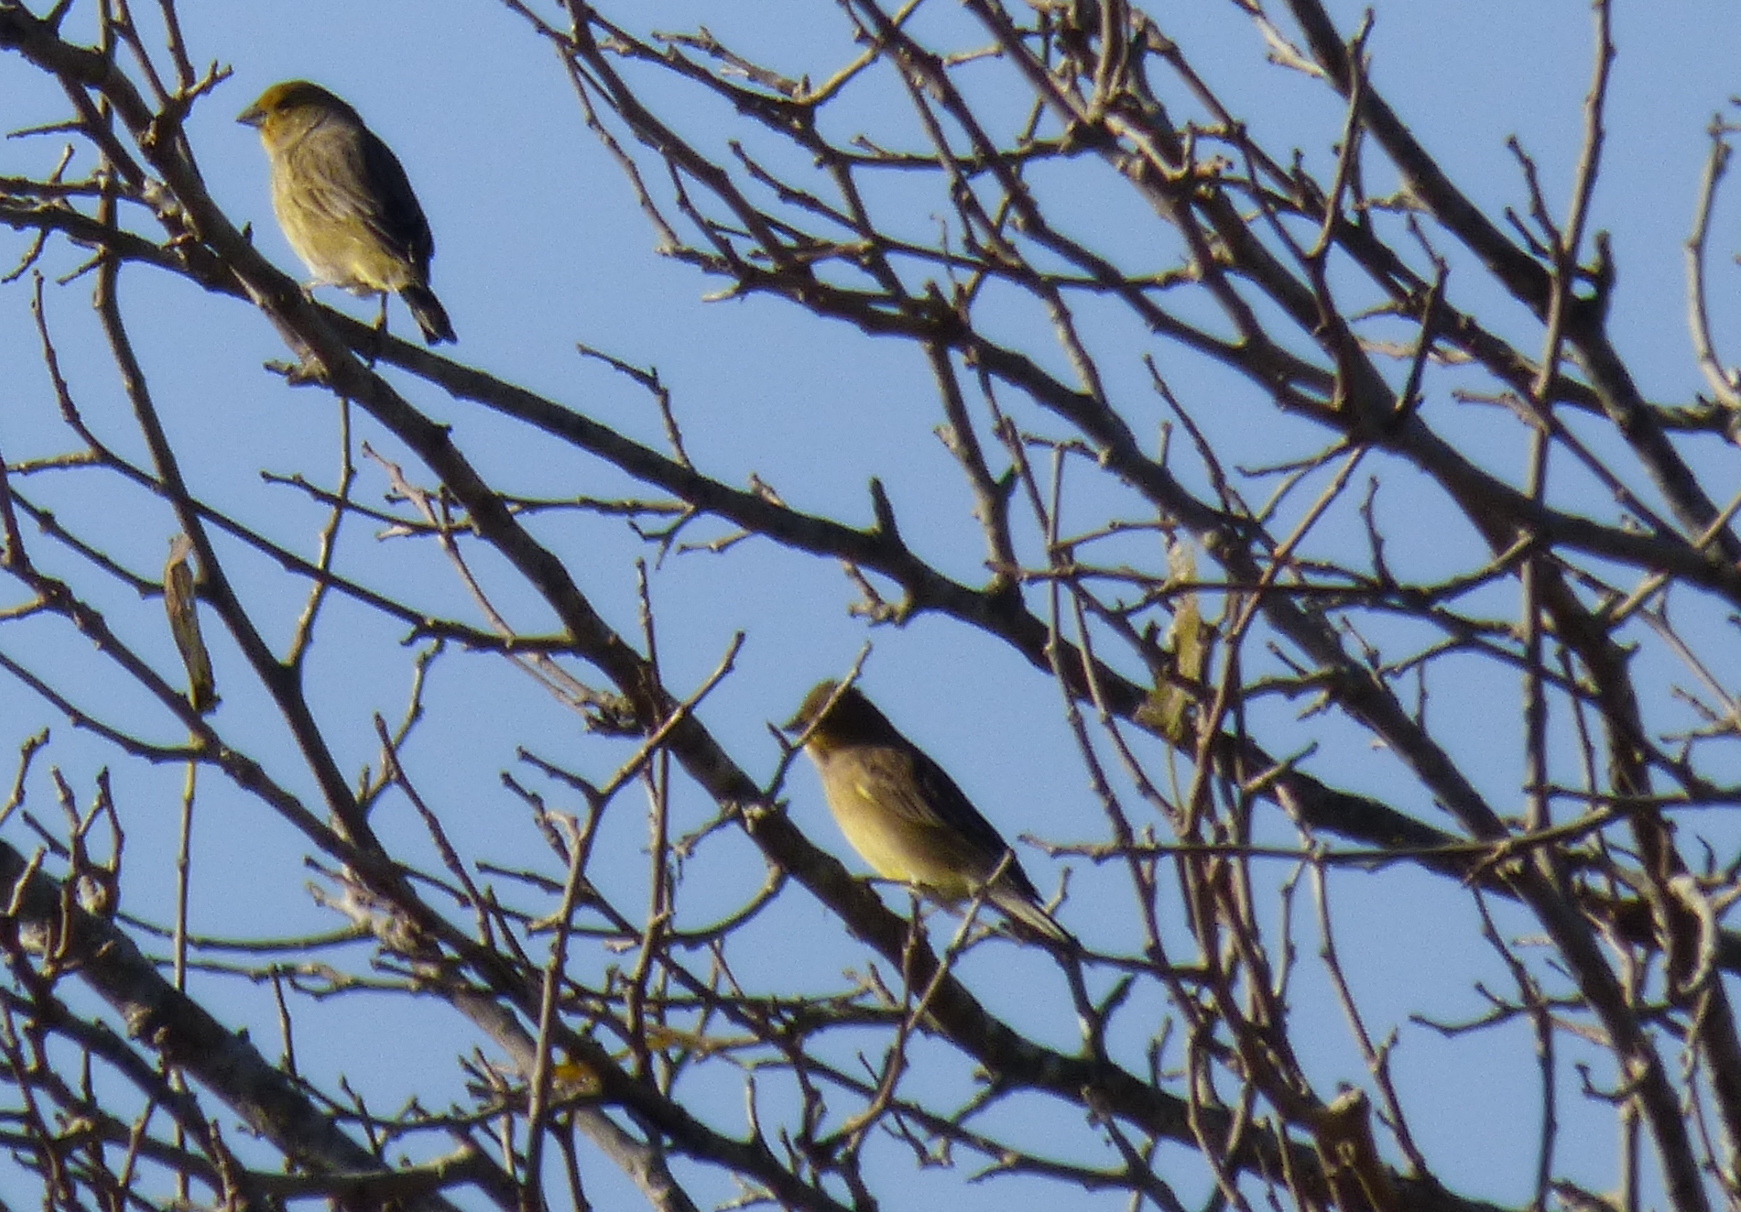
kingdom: Animalia
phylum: Chordata
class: Aves
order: Passeriformes
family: Thraupidae
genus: Sicalis
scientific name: Sicalis luteola
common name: Grassland yellow-finch
